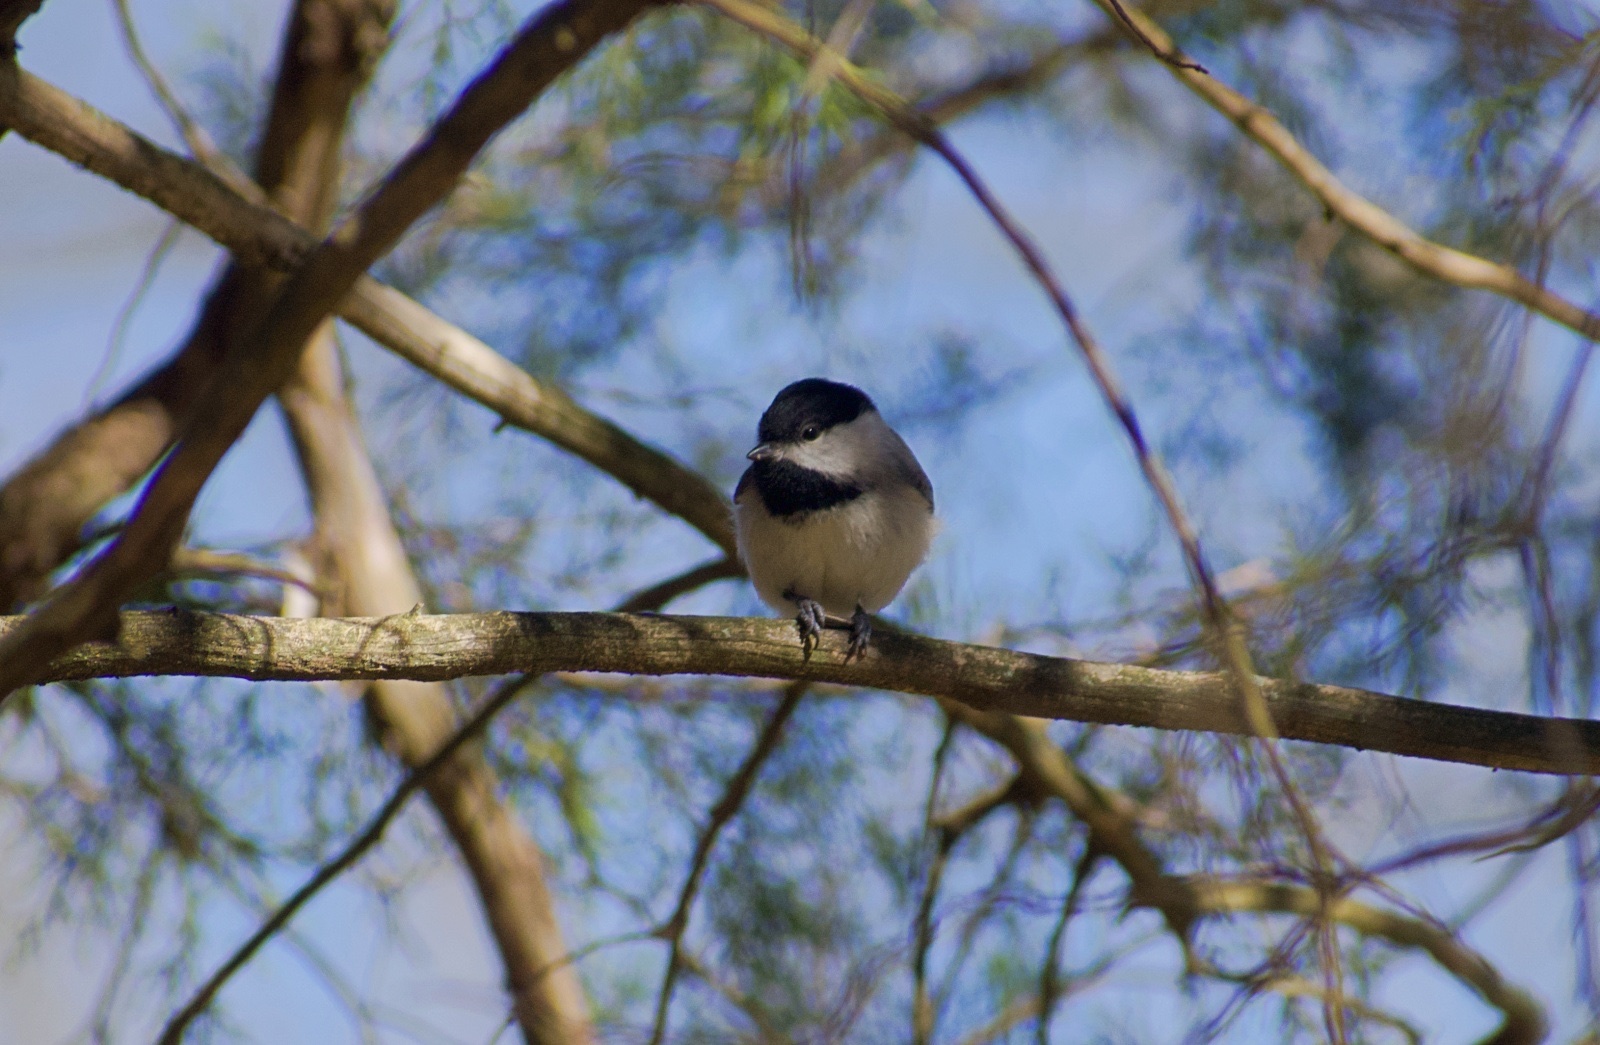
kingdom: Animalia
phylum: Chordata
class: Aves
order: Passeriformes
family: Paridae
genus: Poecile
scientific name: Poecile carolinensis
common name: Carolina chickadee
